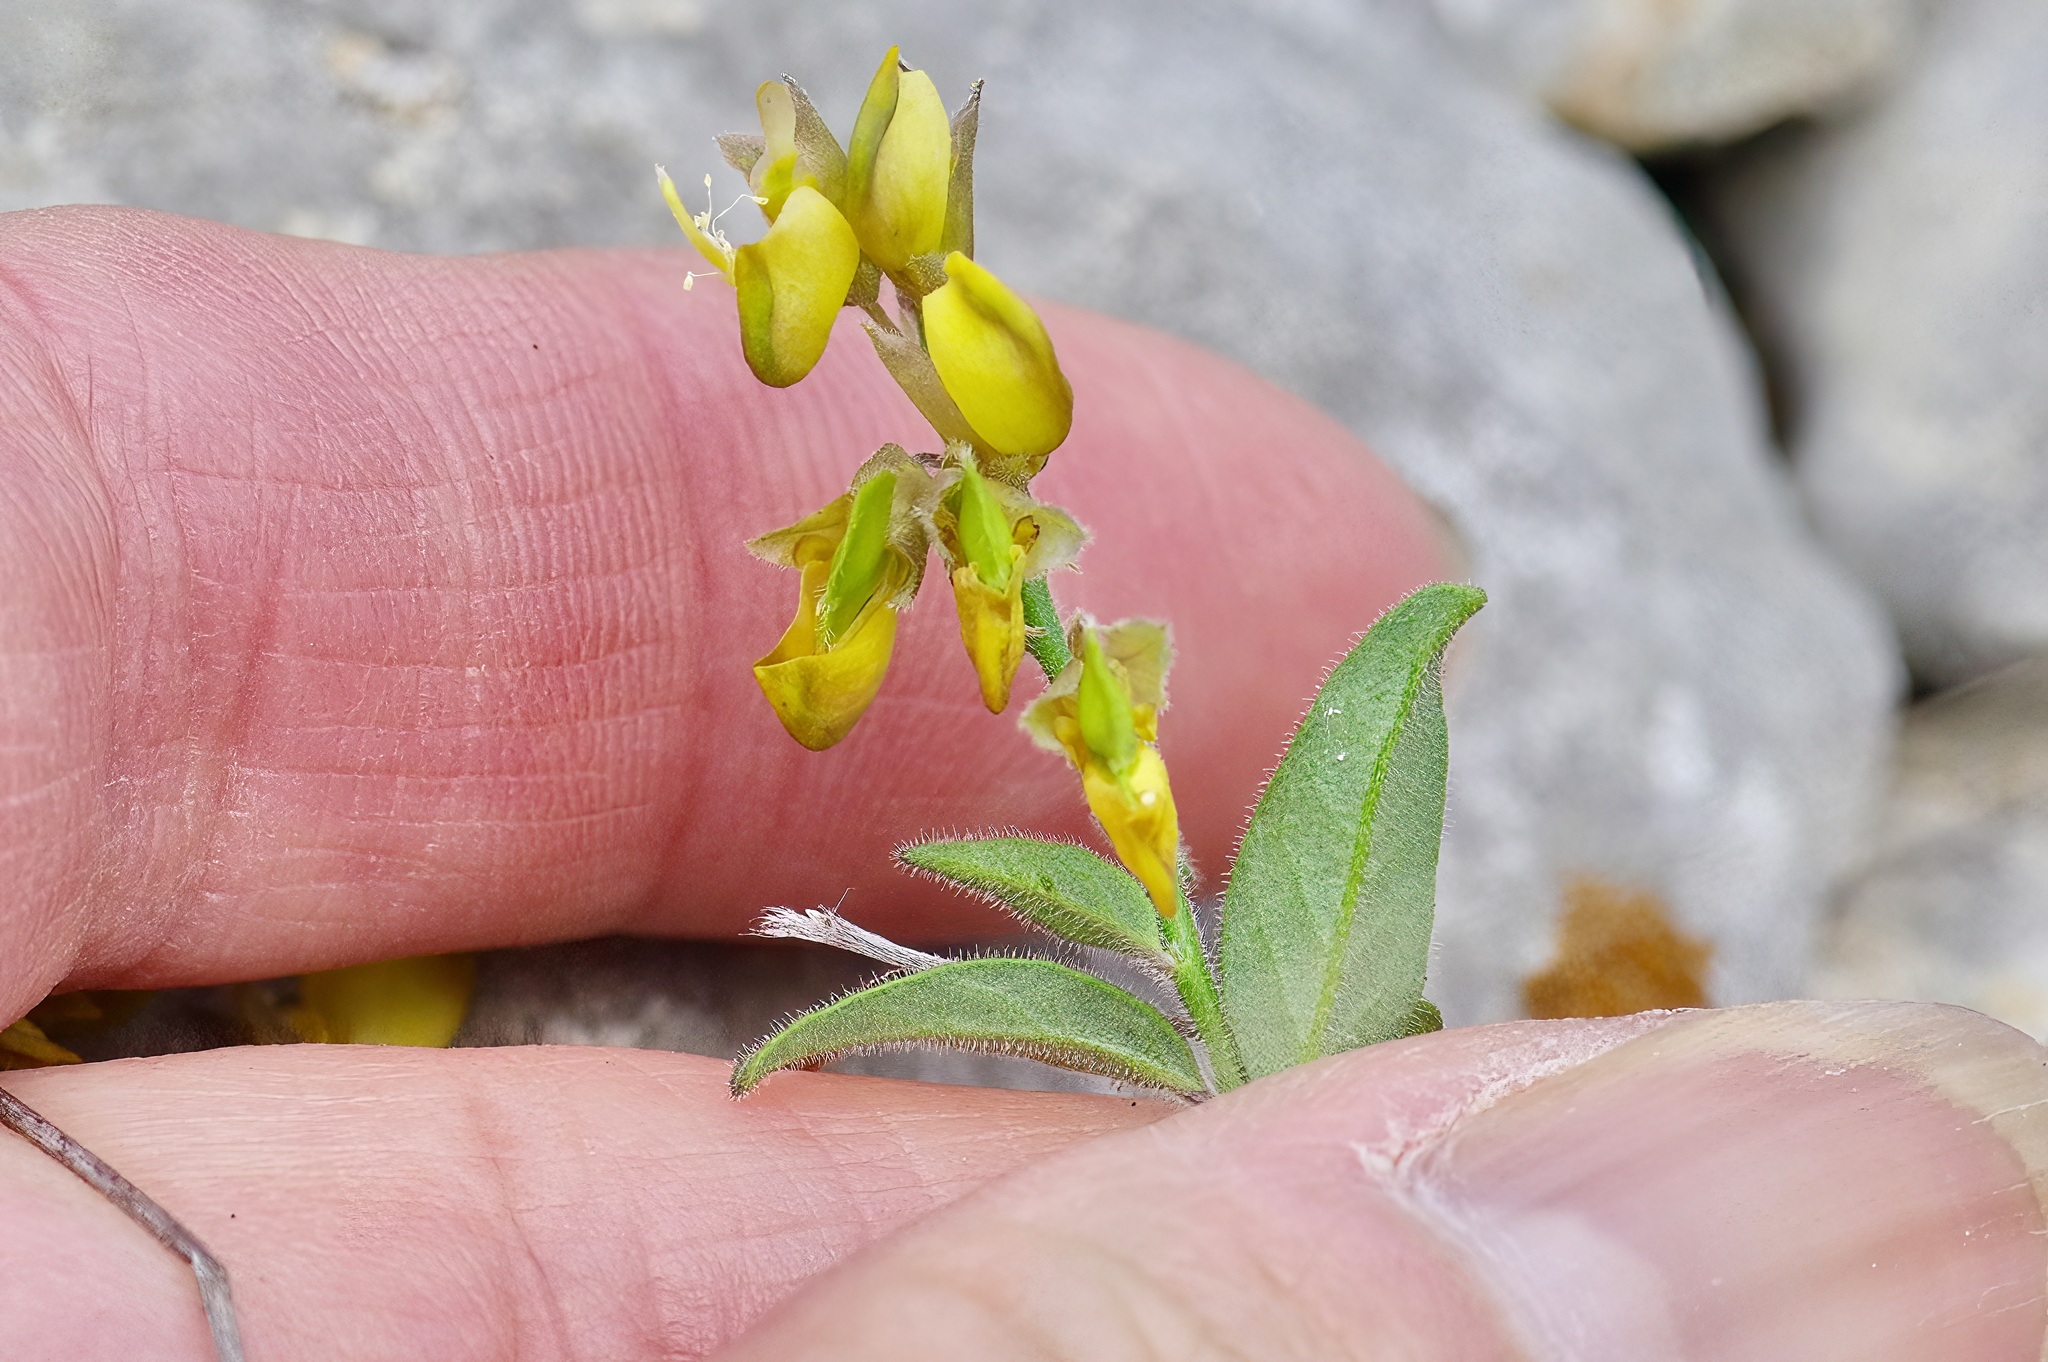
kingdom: Plantae
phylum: Tracheophyta
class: Magnoliopsida
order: Fabales
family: Polygalaceae
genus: Hebecarpa
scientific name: Hebecarpa ovatifolia
